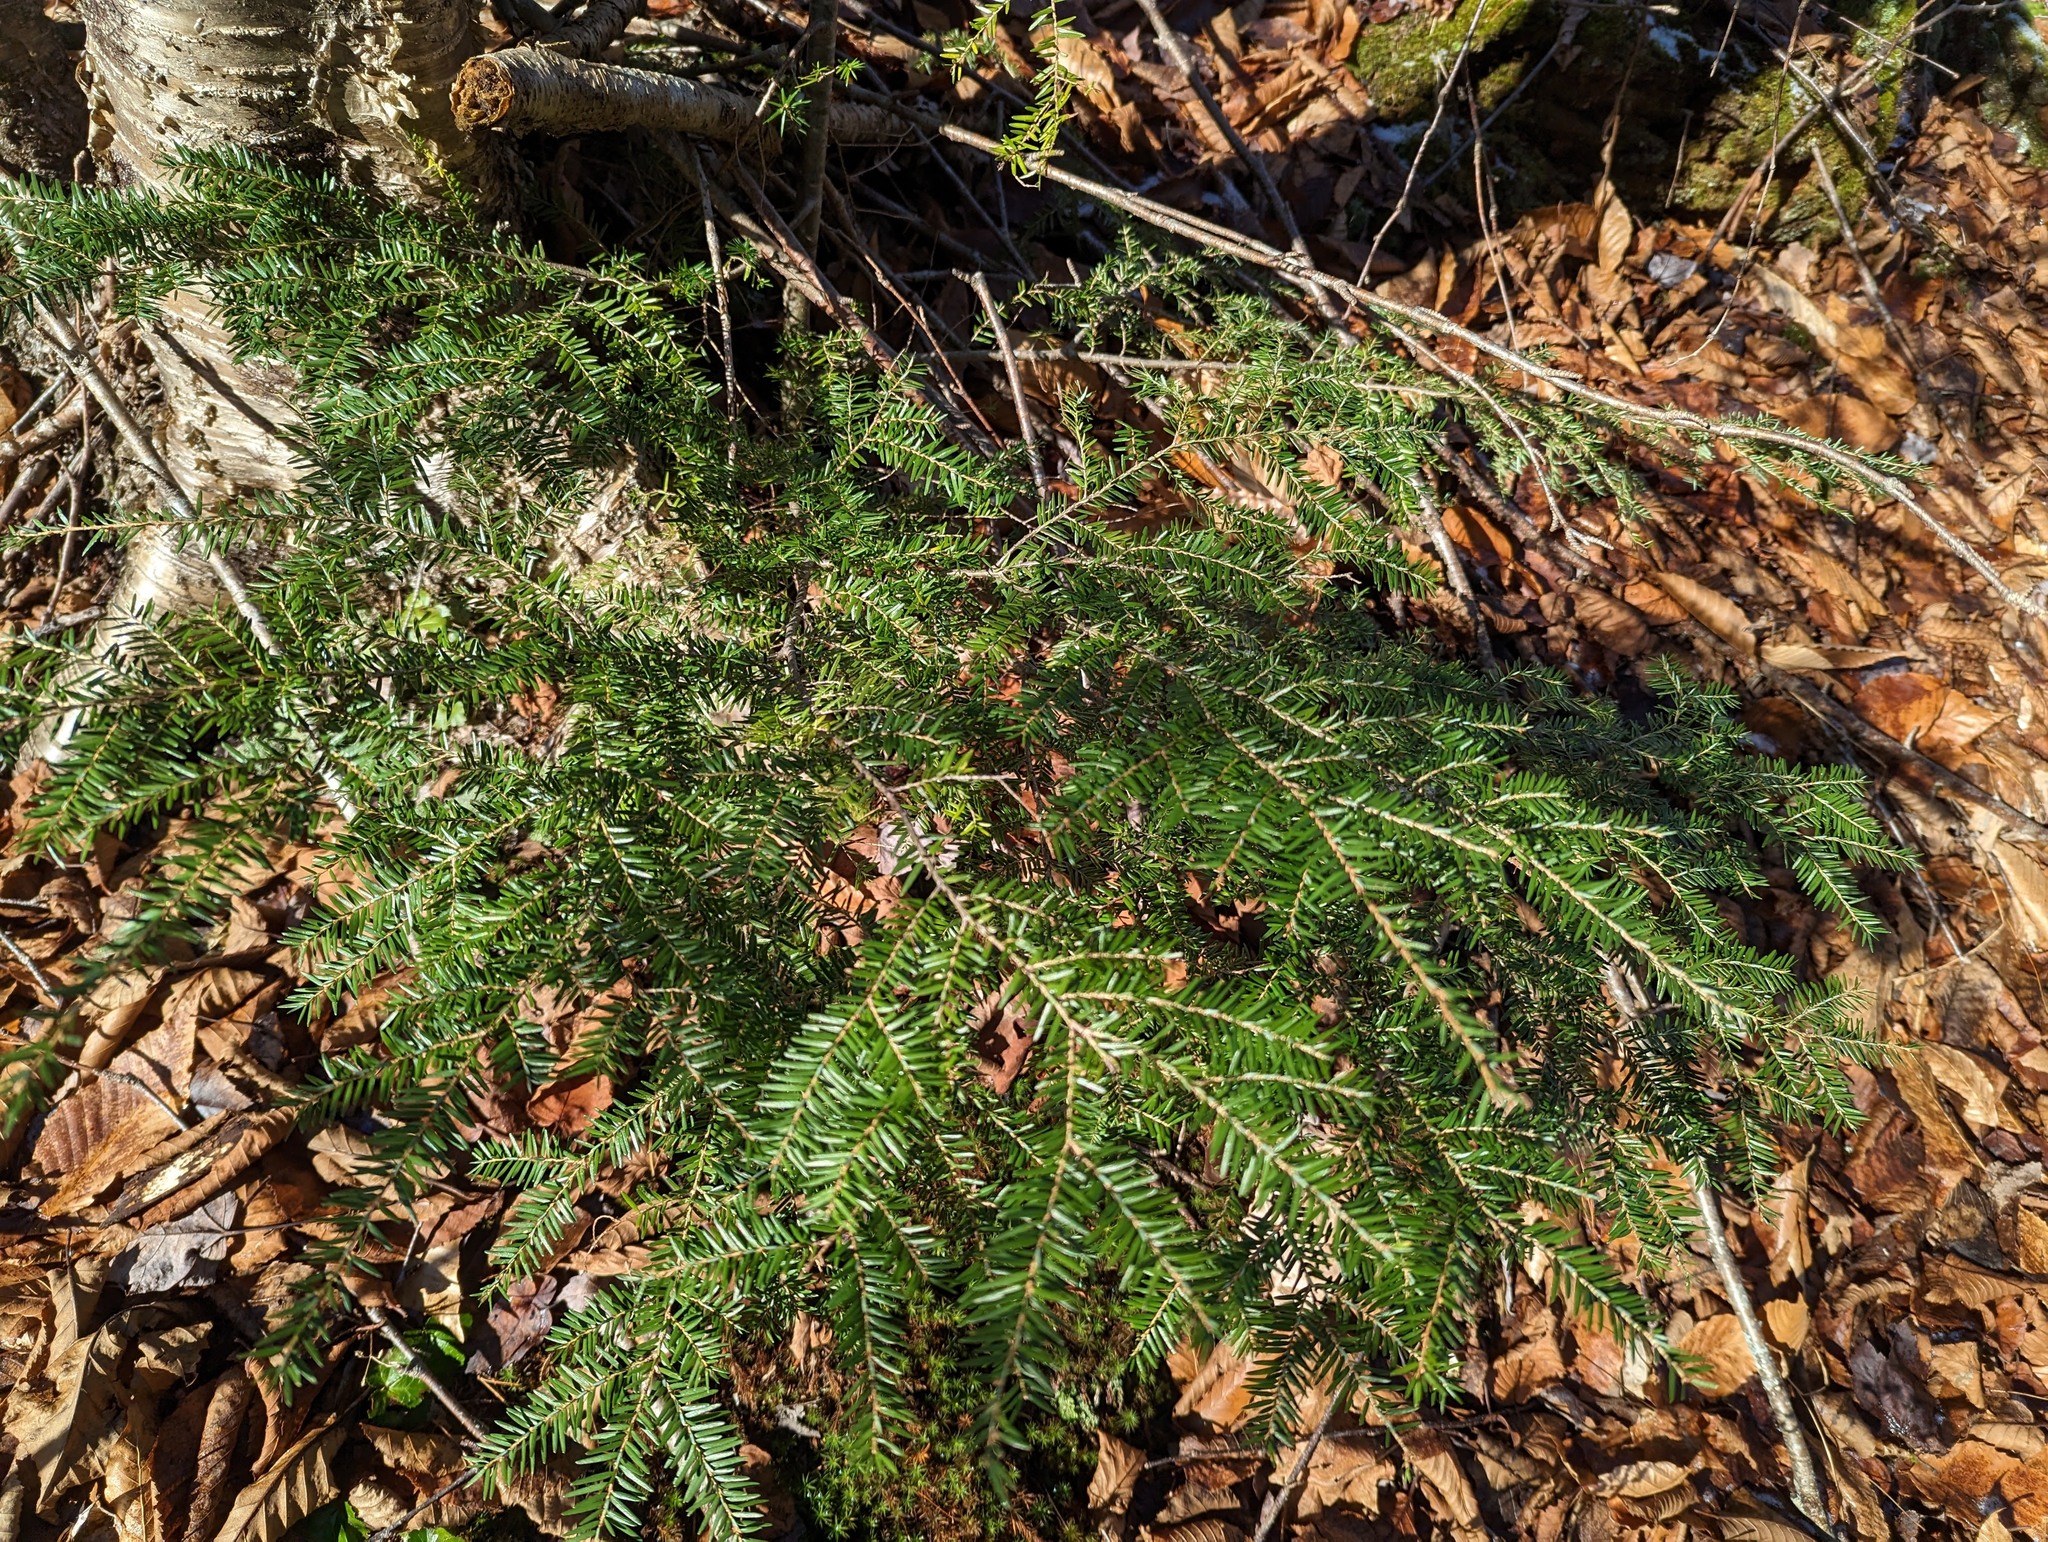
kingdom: Plantae
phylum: Tracheophyta
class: Pinopsida
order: Pinales
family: Pinaceae
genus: Tsuga
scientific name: Tsuga canadensis
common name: Eastern hemlock
